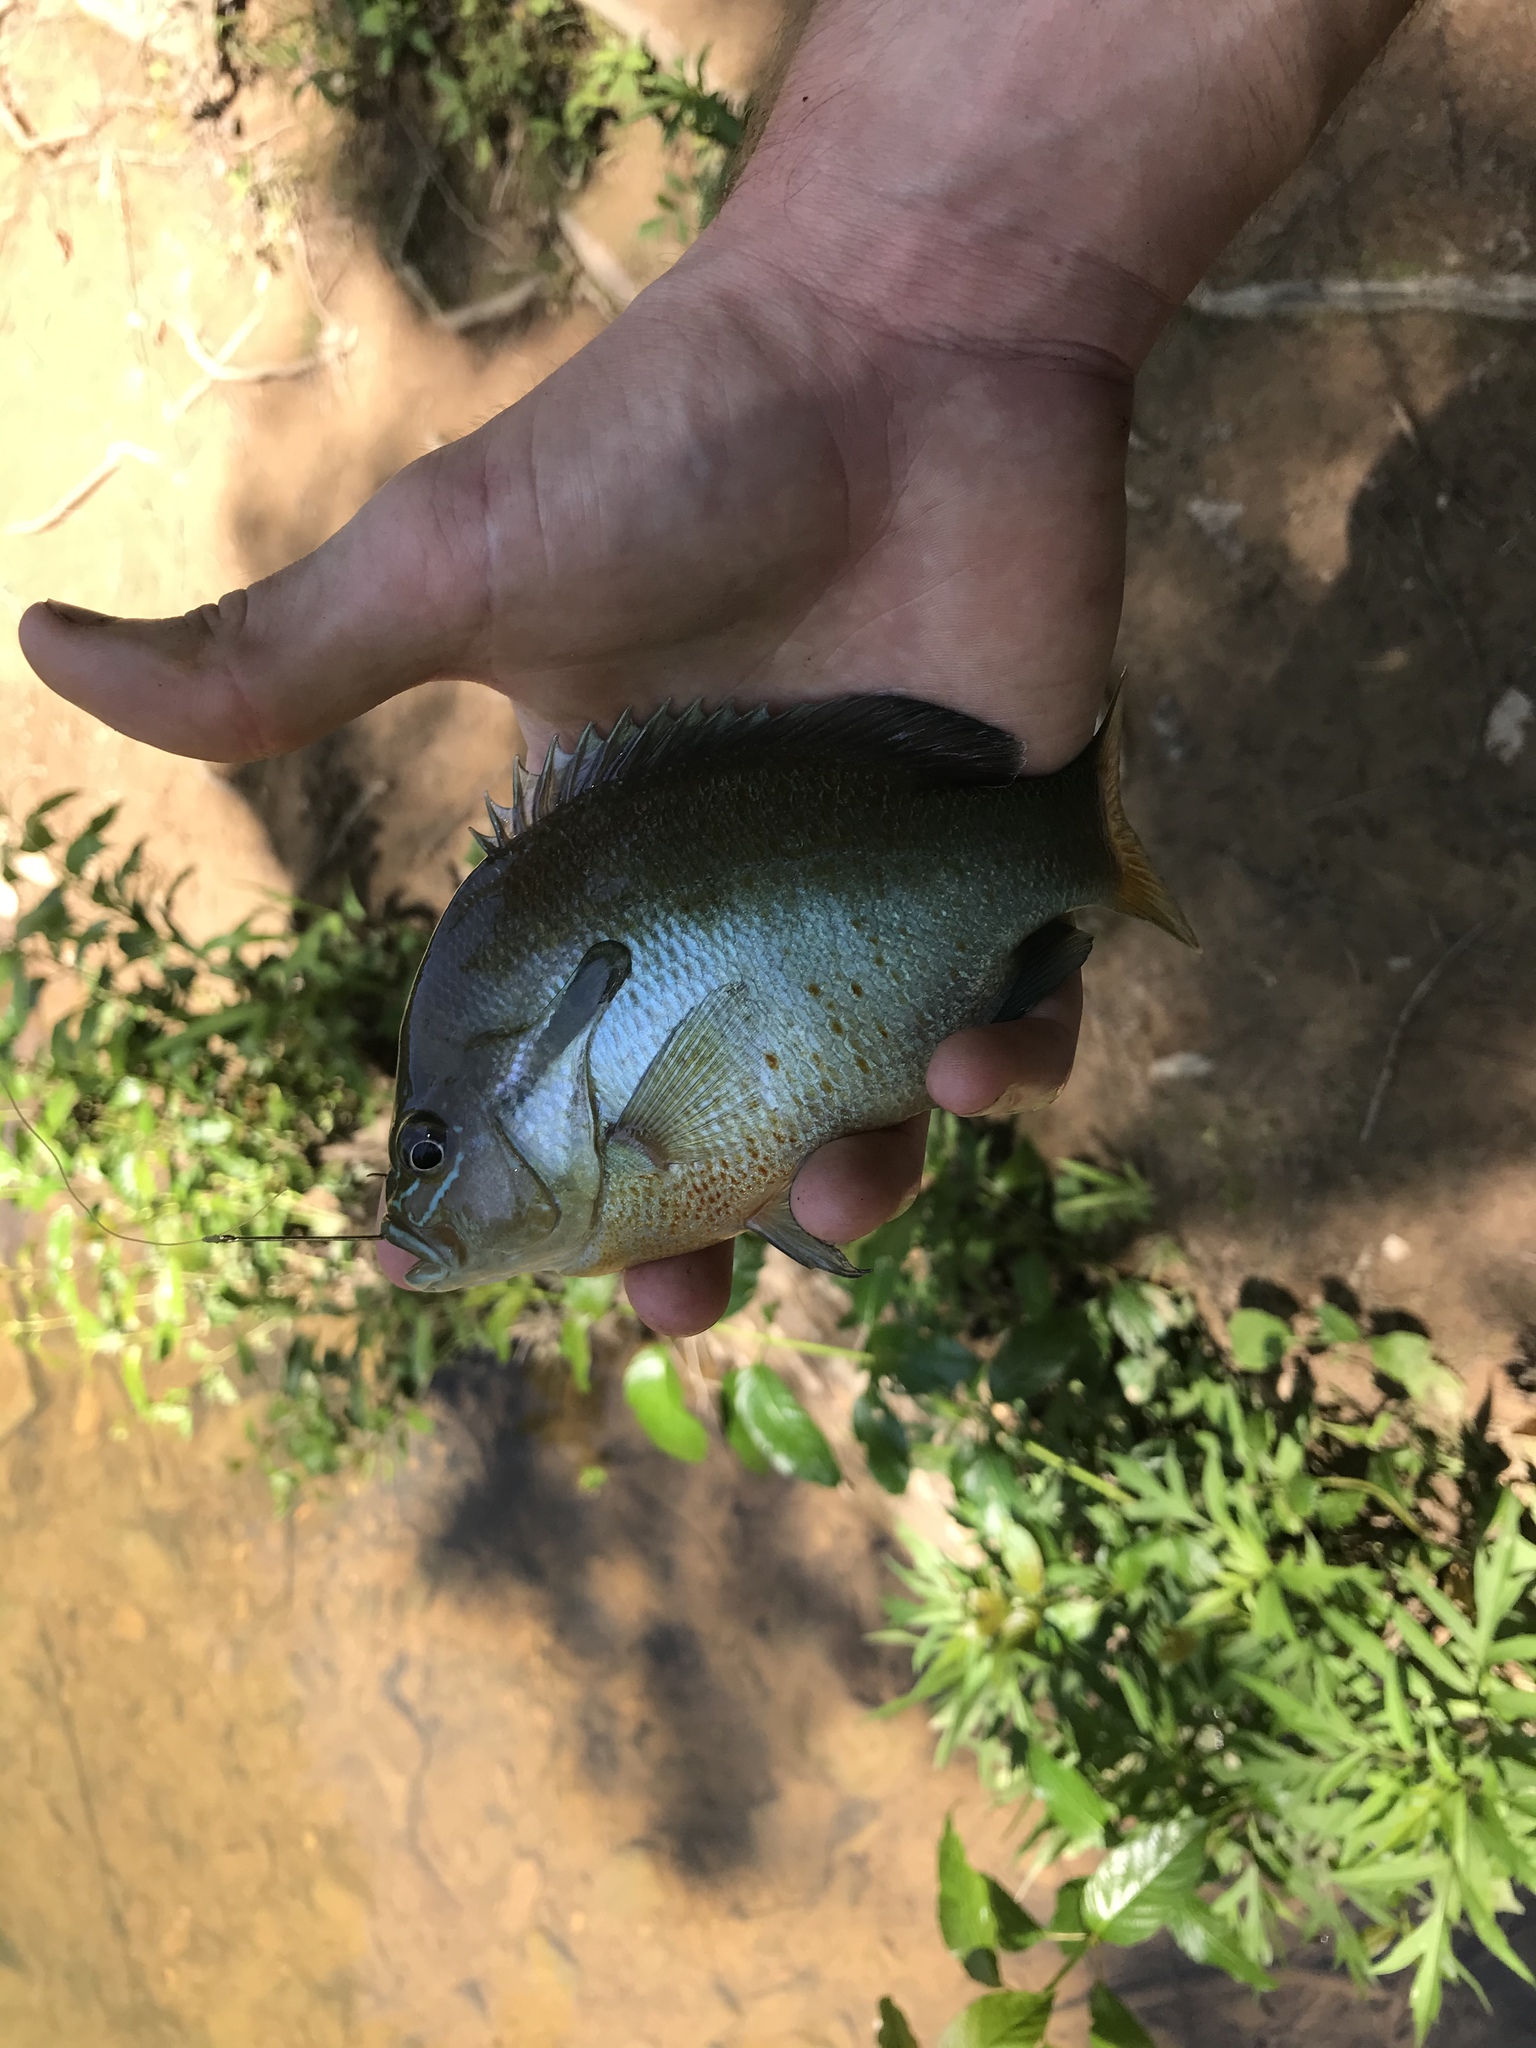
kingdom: Animalia
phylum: Chordata
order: Perciformes
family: Centrarchidae
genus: Lepomis
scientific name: Lepomis auritus
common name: Redbreast sunfish
